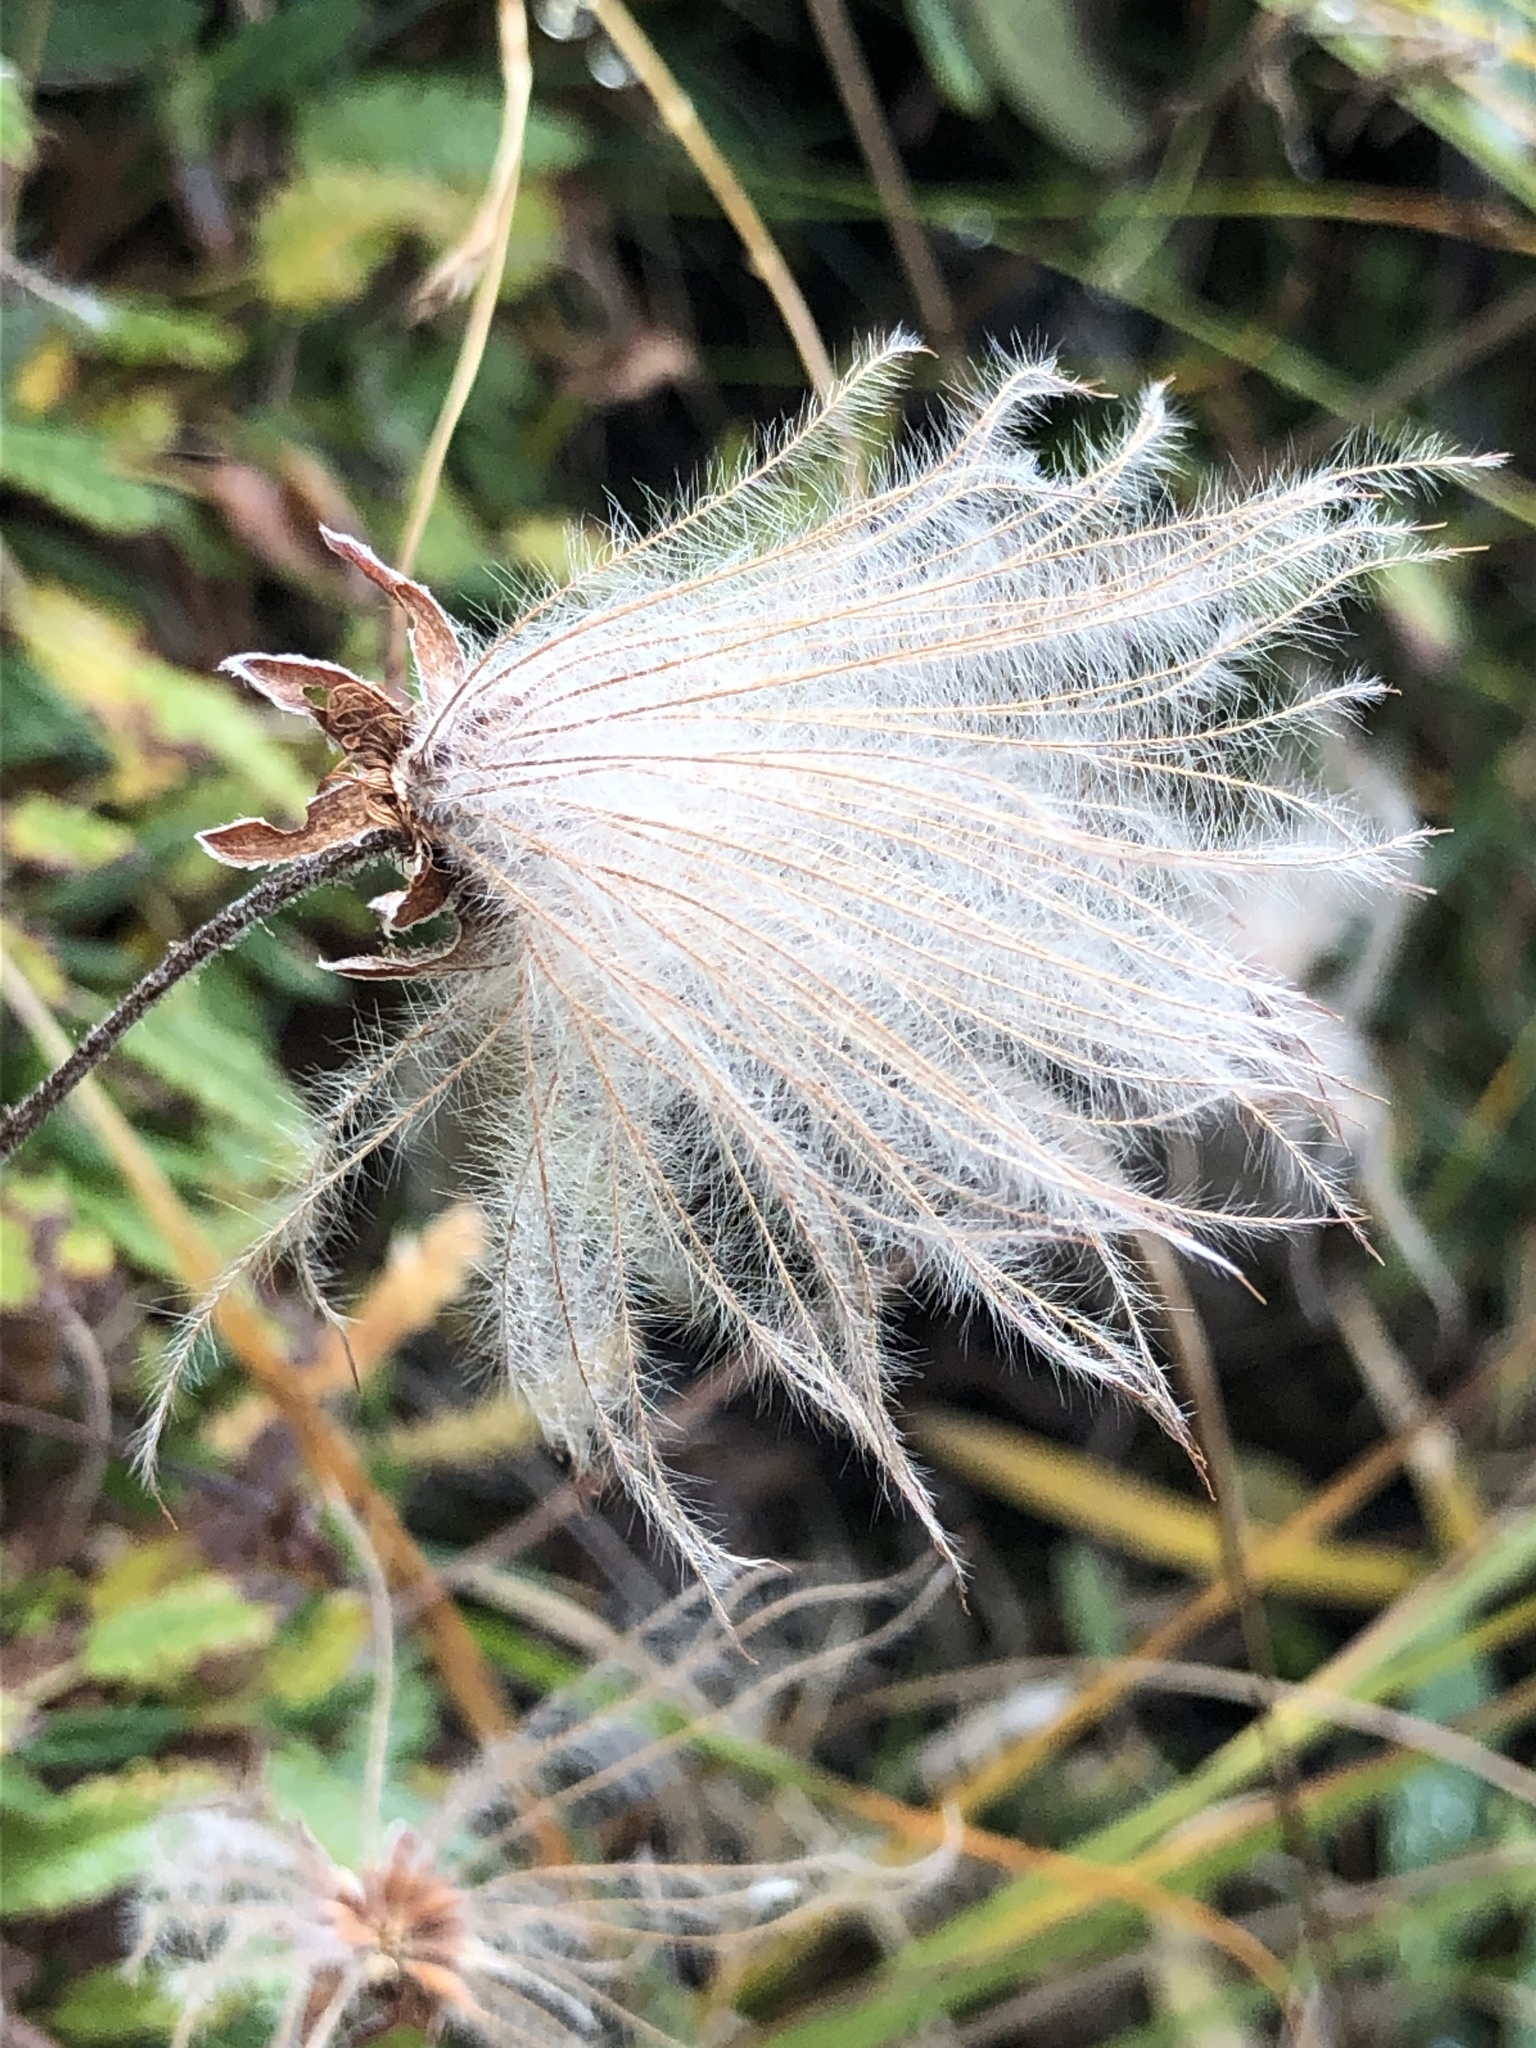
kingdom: Plantae
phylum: Tracheophyta
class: Magnoliopsida
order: Rosales
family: Rosaceae
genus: Dryas
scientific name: Dryas octopetala
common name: Eight-petal mountain-avens
